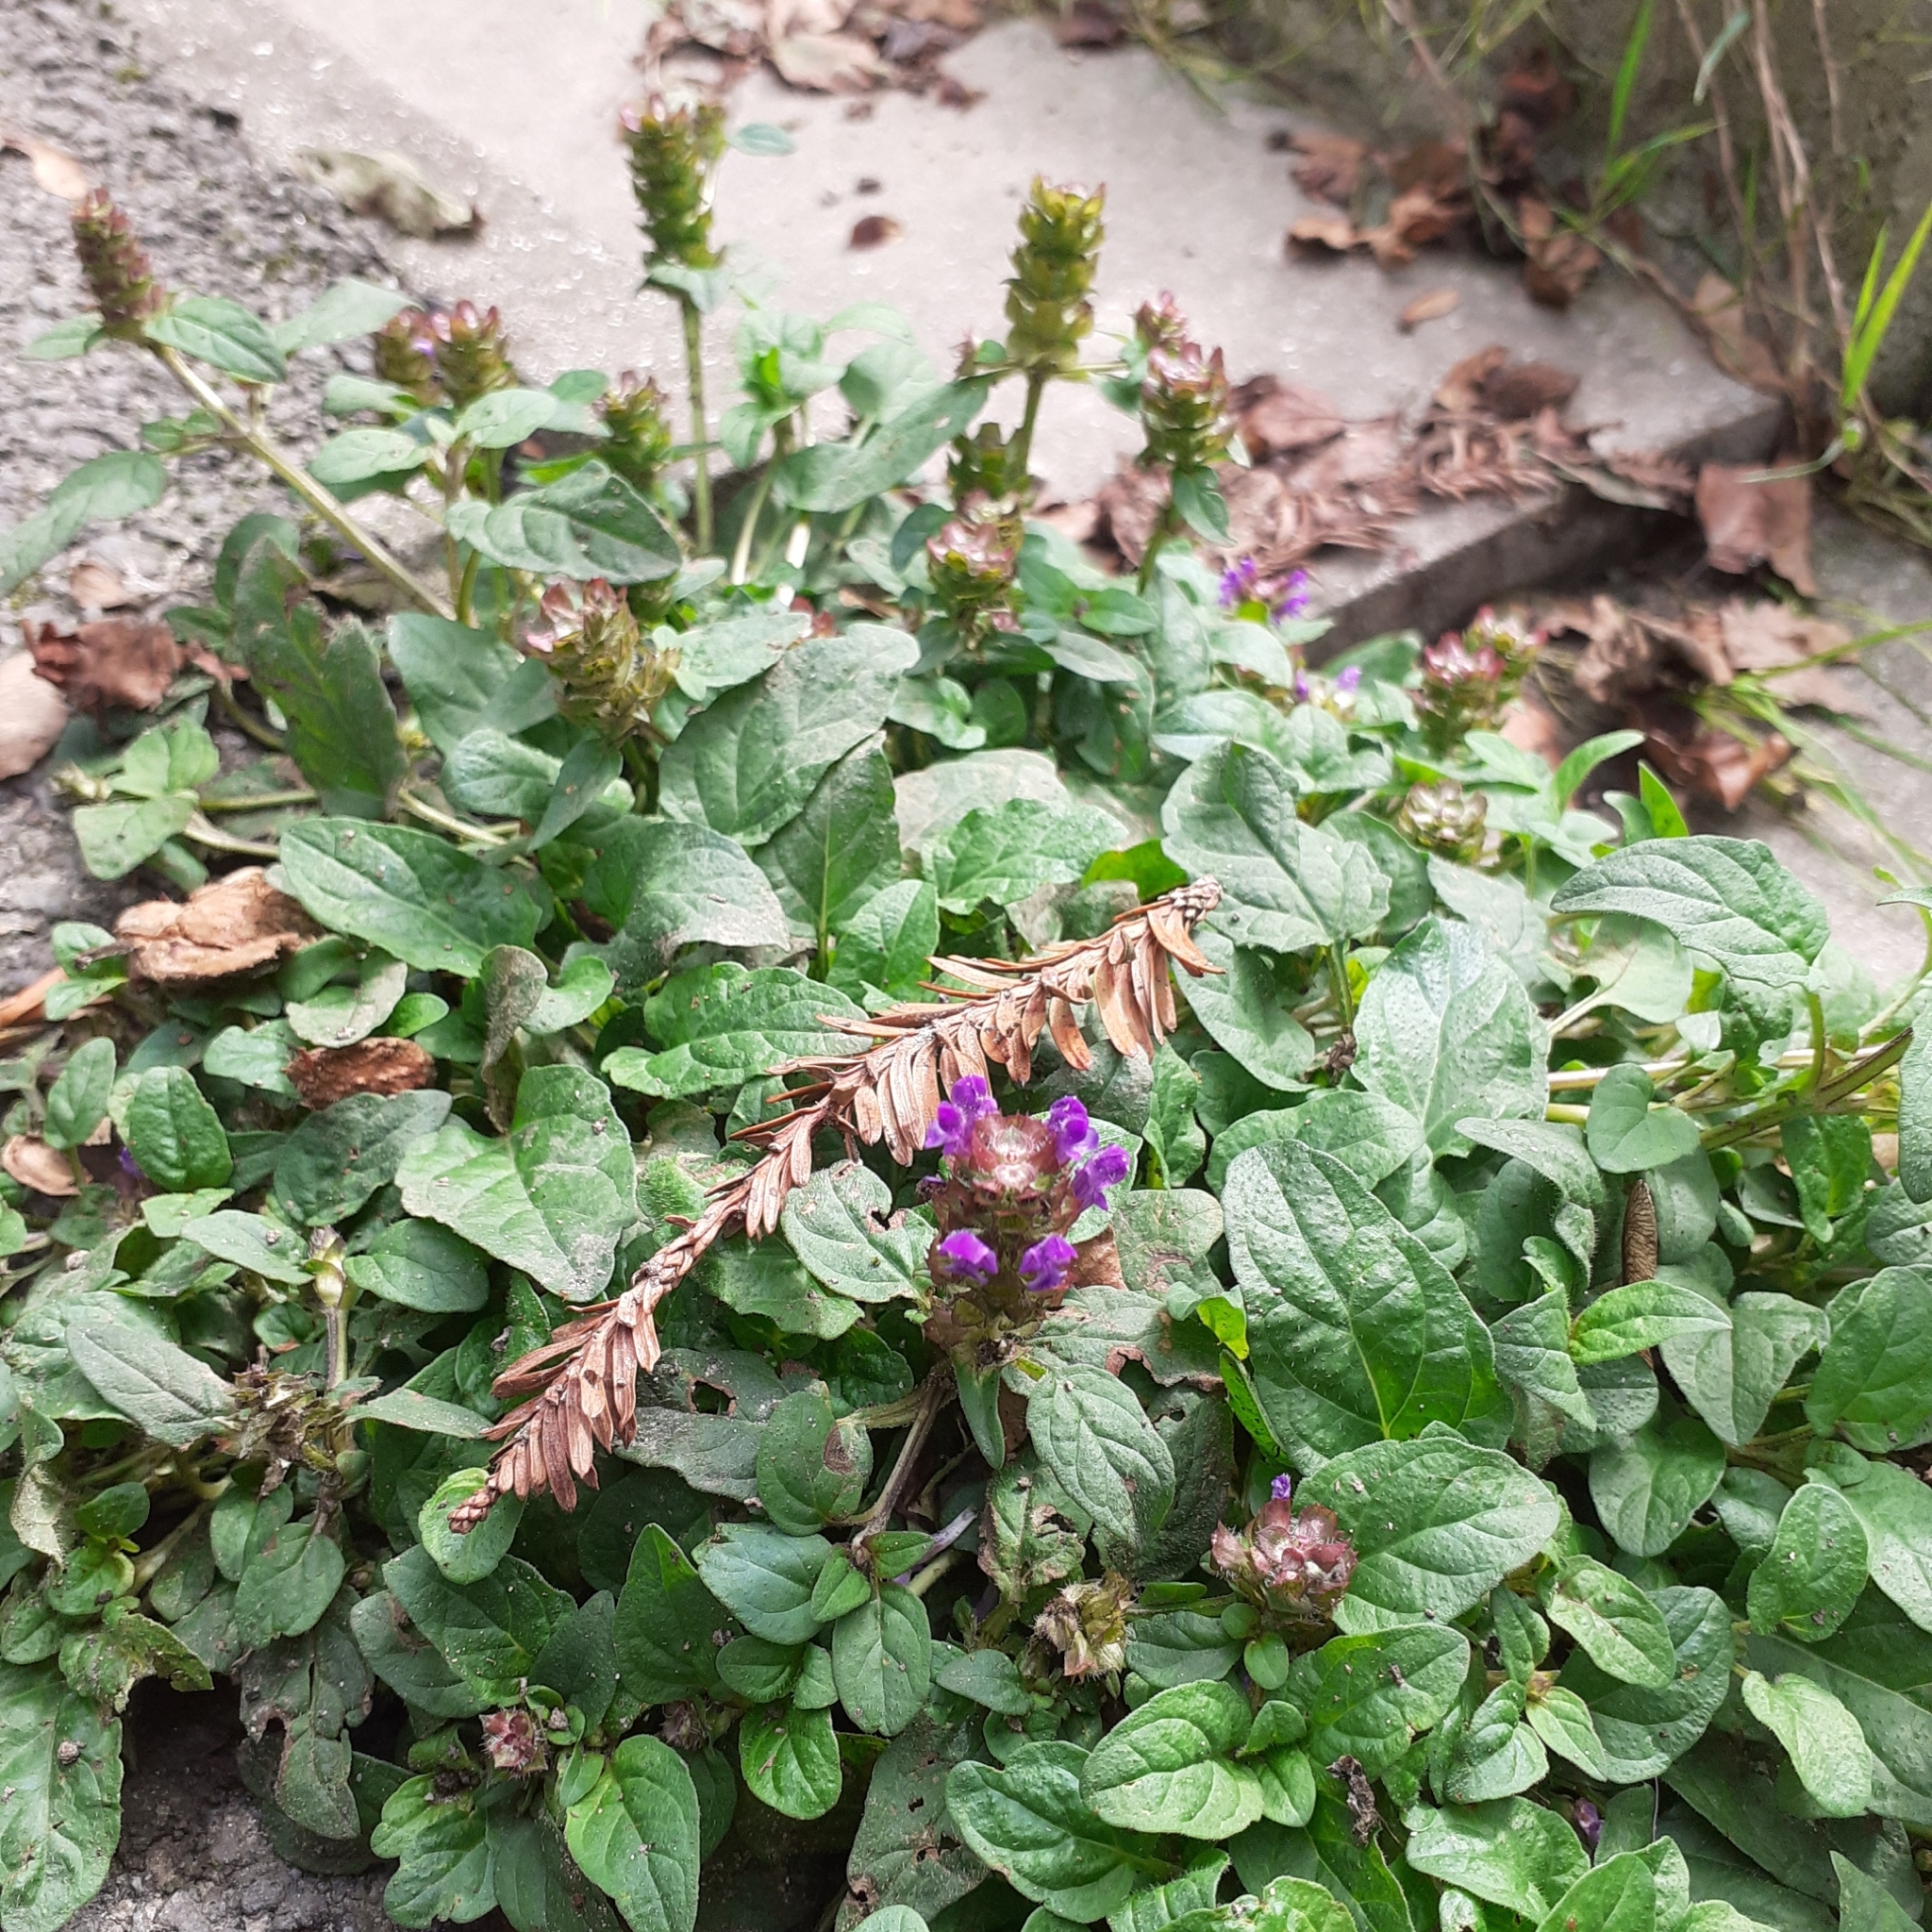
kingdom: Plantae
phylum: Tracheophyta
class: Magnoliopsida
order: Lamiales
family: Lamiaceae
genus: Prunella
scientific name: Prunella vulgaris
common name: Heal-all
